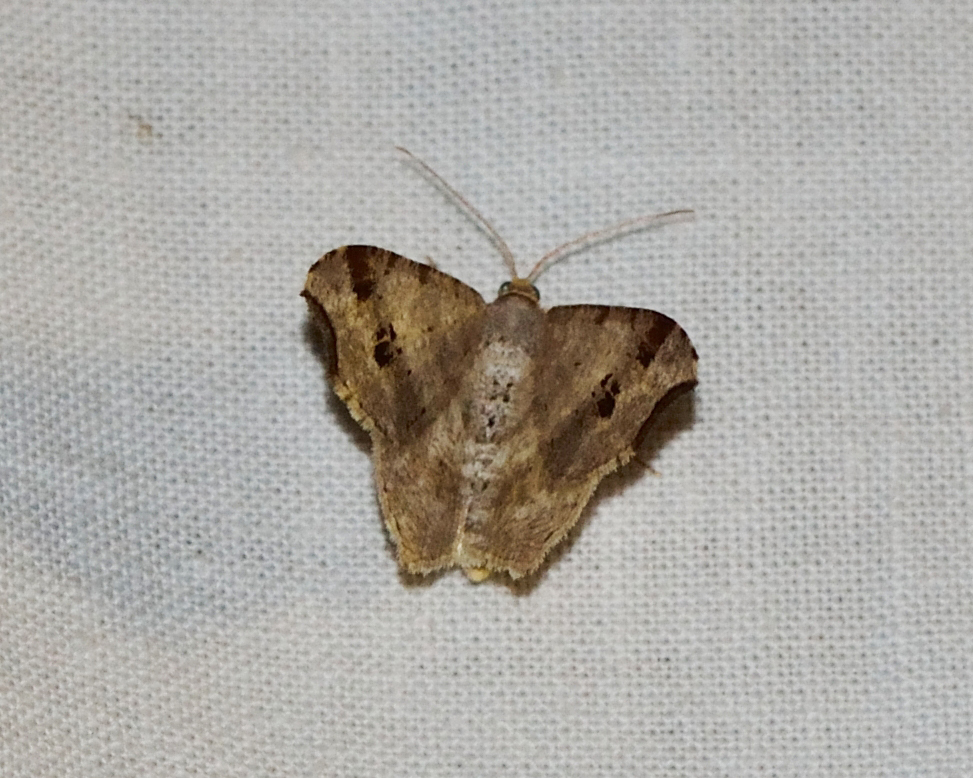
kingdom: Animalia
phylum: Arthropoda
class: Insecta
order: Lepidoptera
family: Geometridae
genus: Macaria
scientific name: Macaria alternata
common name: Sharp-angled peacock
